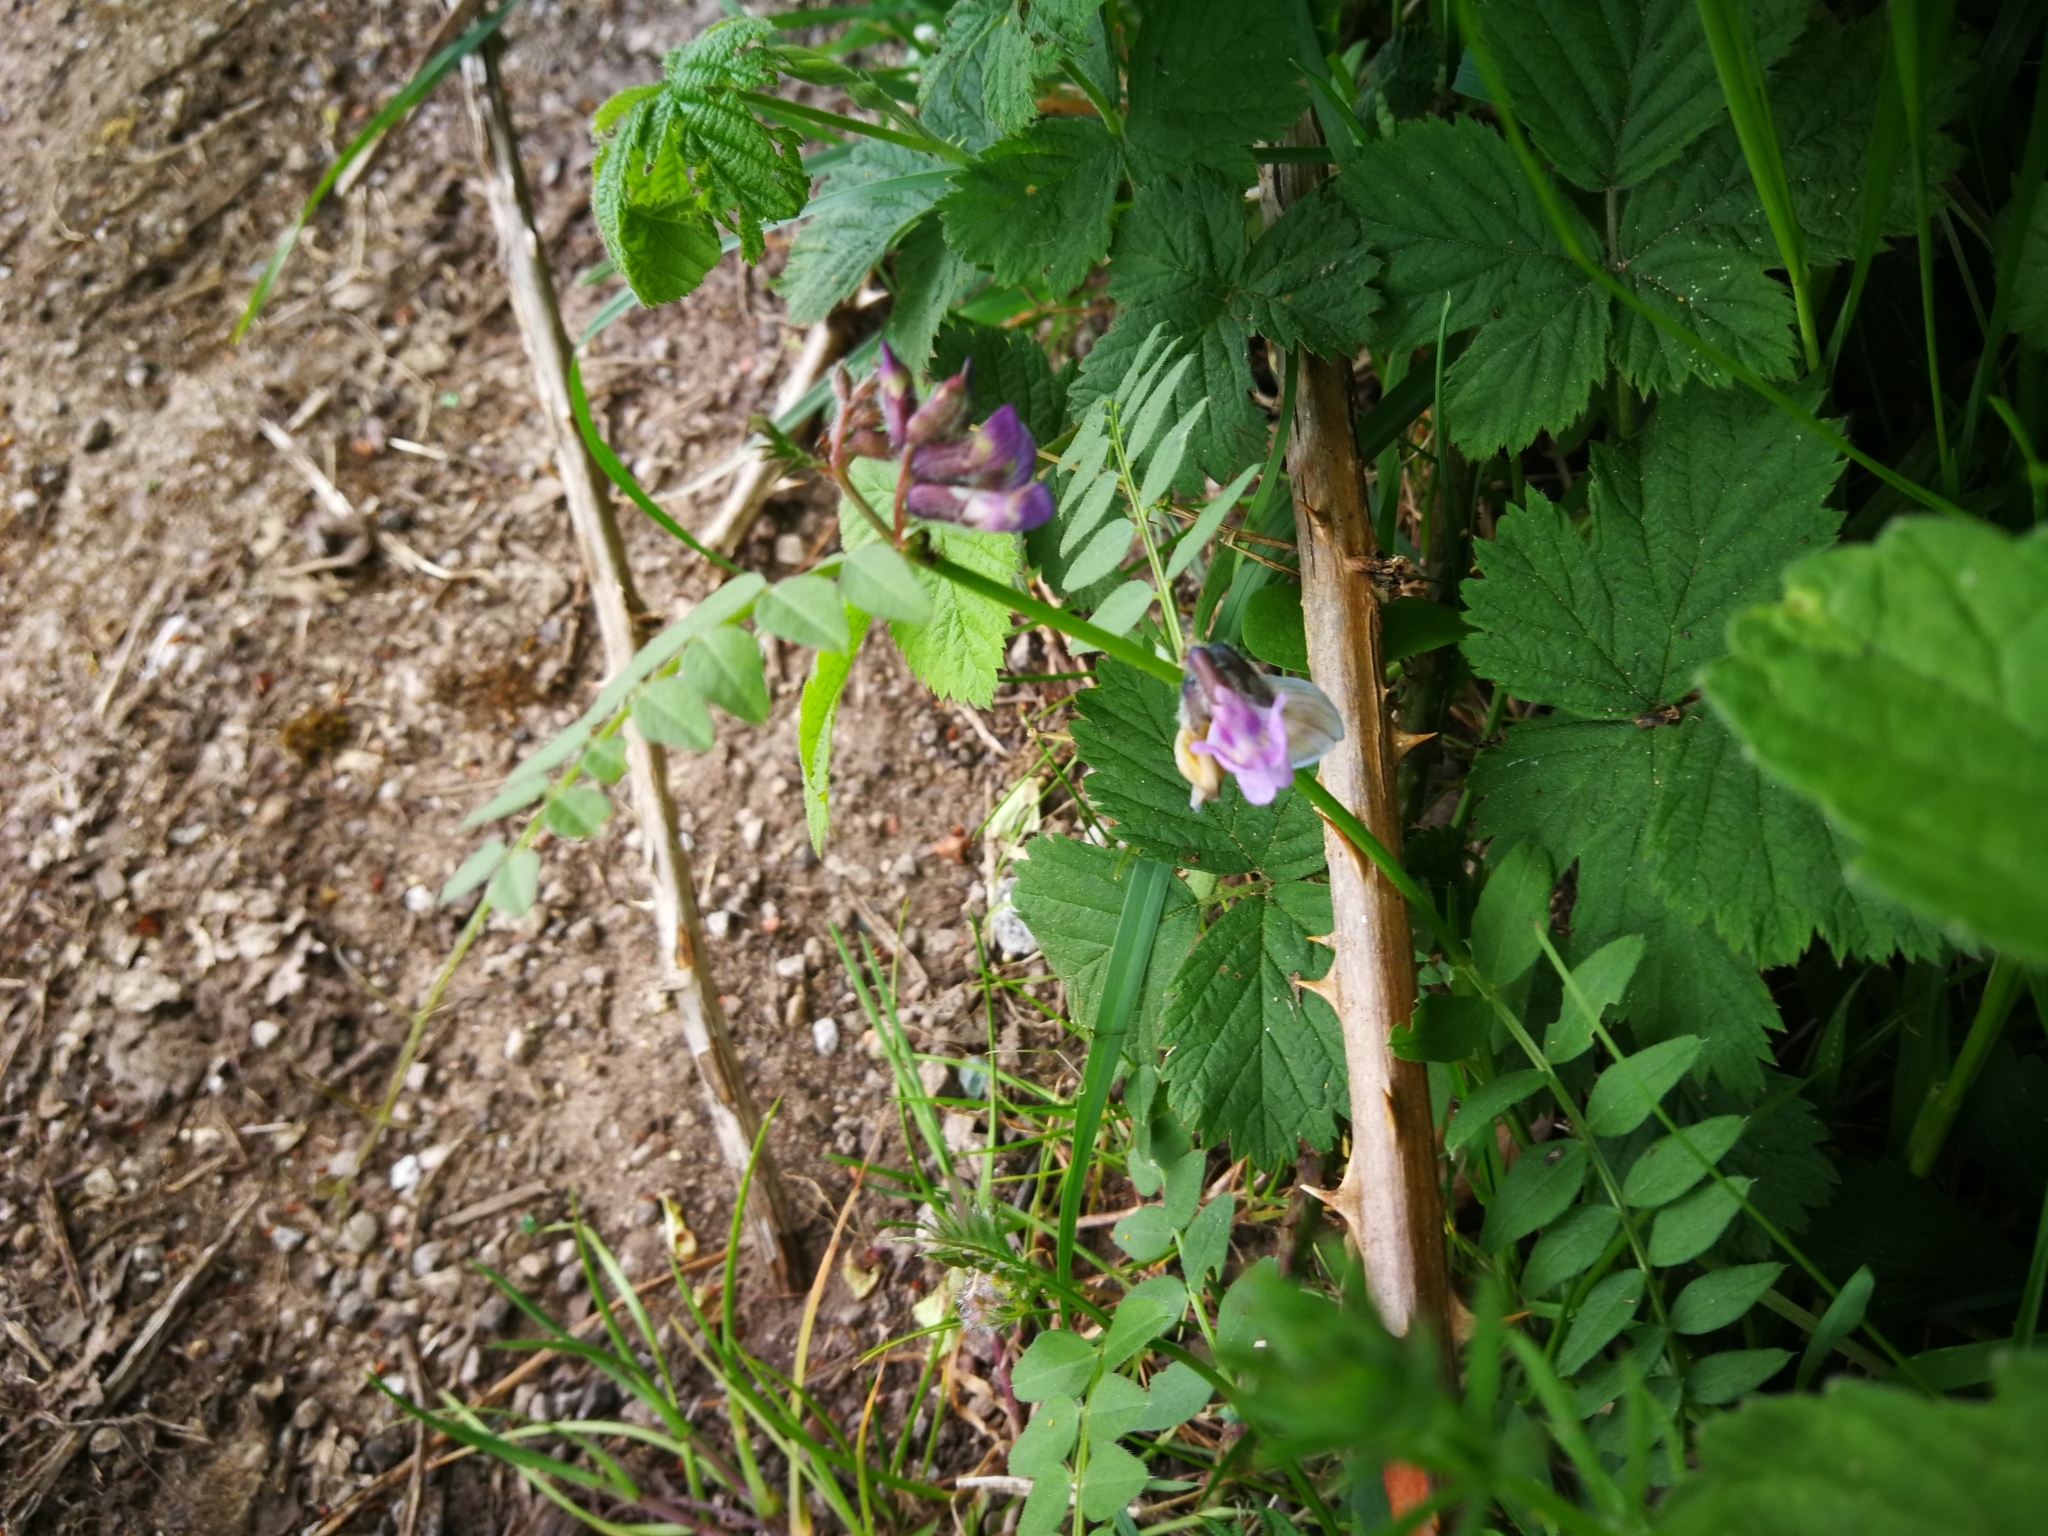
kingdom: Plantae
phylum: Tracheophyta
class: Magnoliopsida
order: Fabales
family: Fabaceae
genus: Vicia
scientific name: Vicia sepium
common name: Bush vetch
